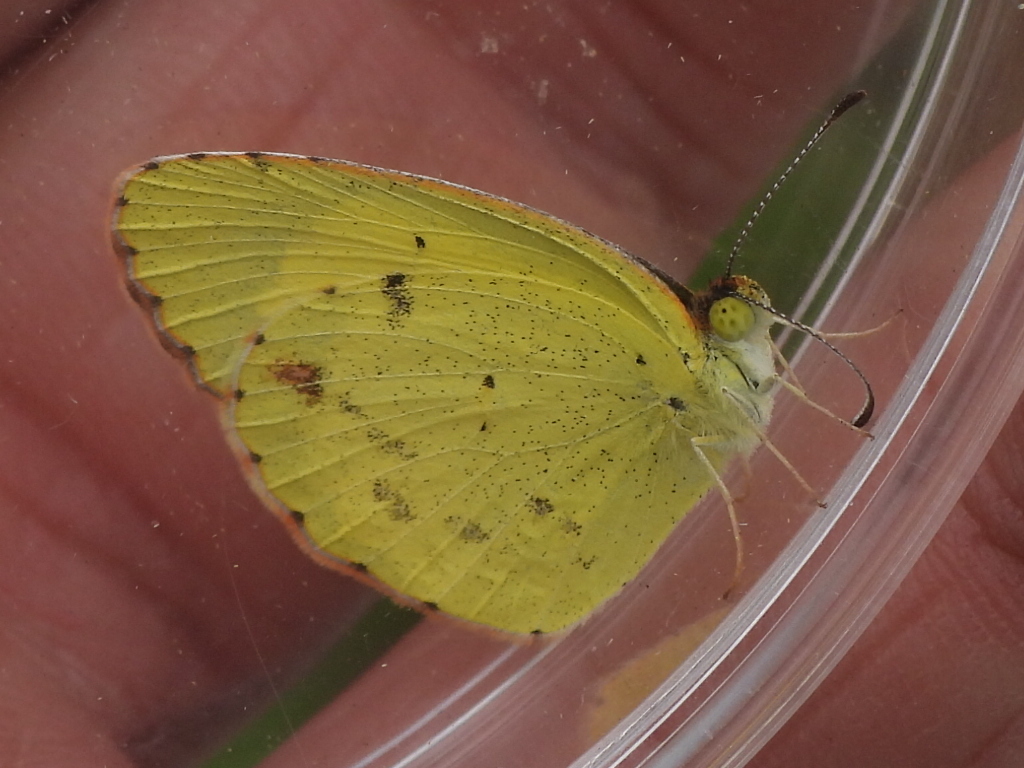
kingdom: Animalia
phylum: Arthropoda
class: Insecta
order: Lepidoptera
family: Pieridae
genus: Pyrisitia
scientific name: Pyrisitia lisa
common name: Little yellow
